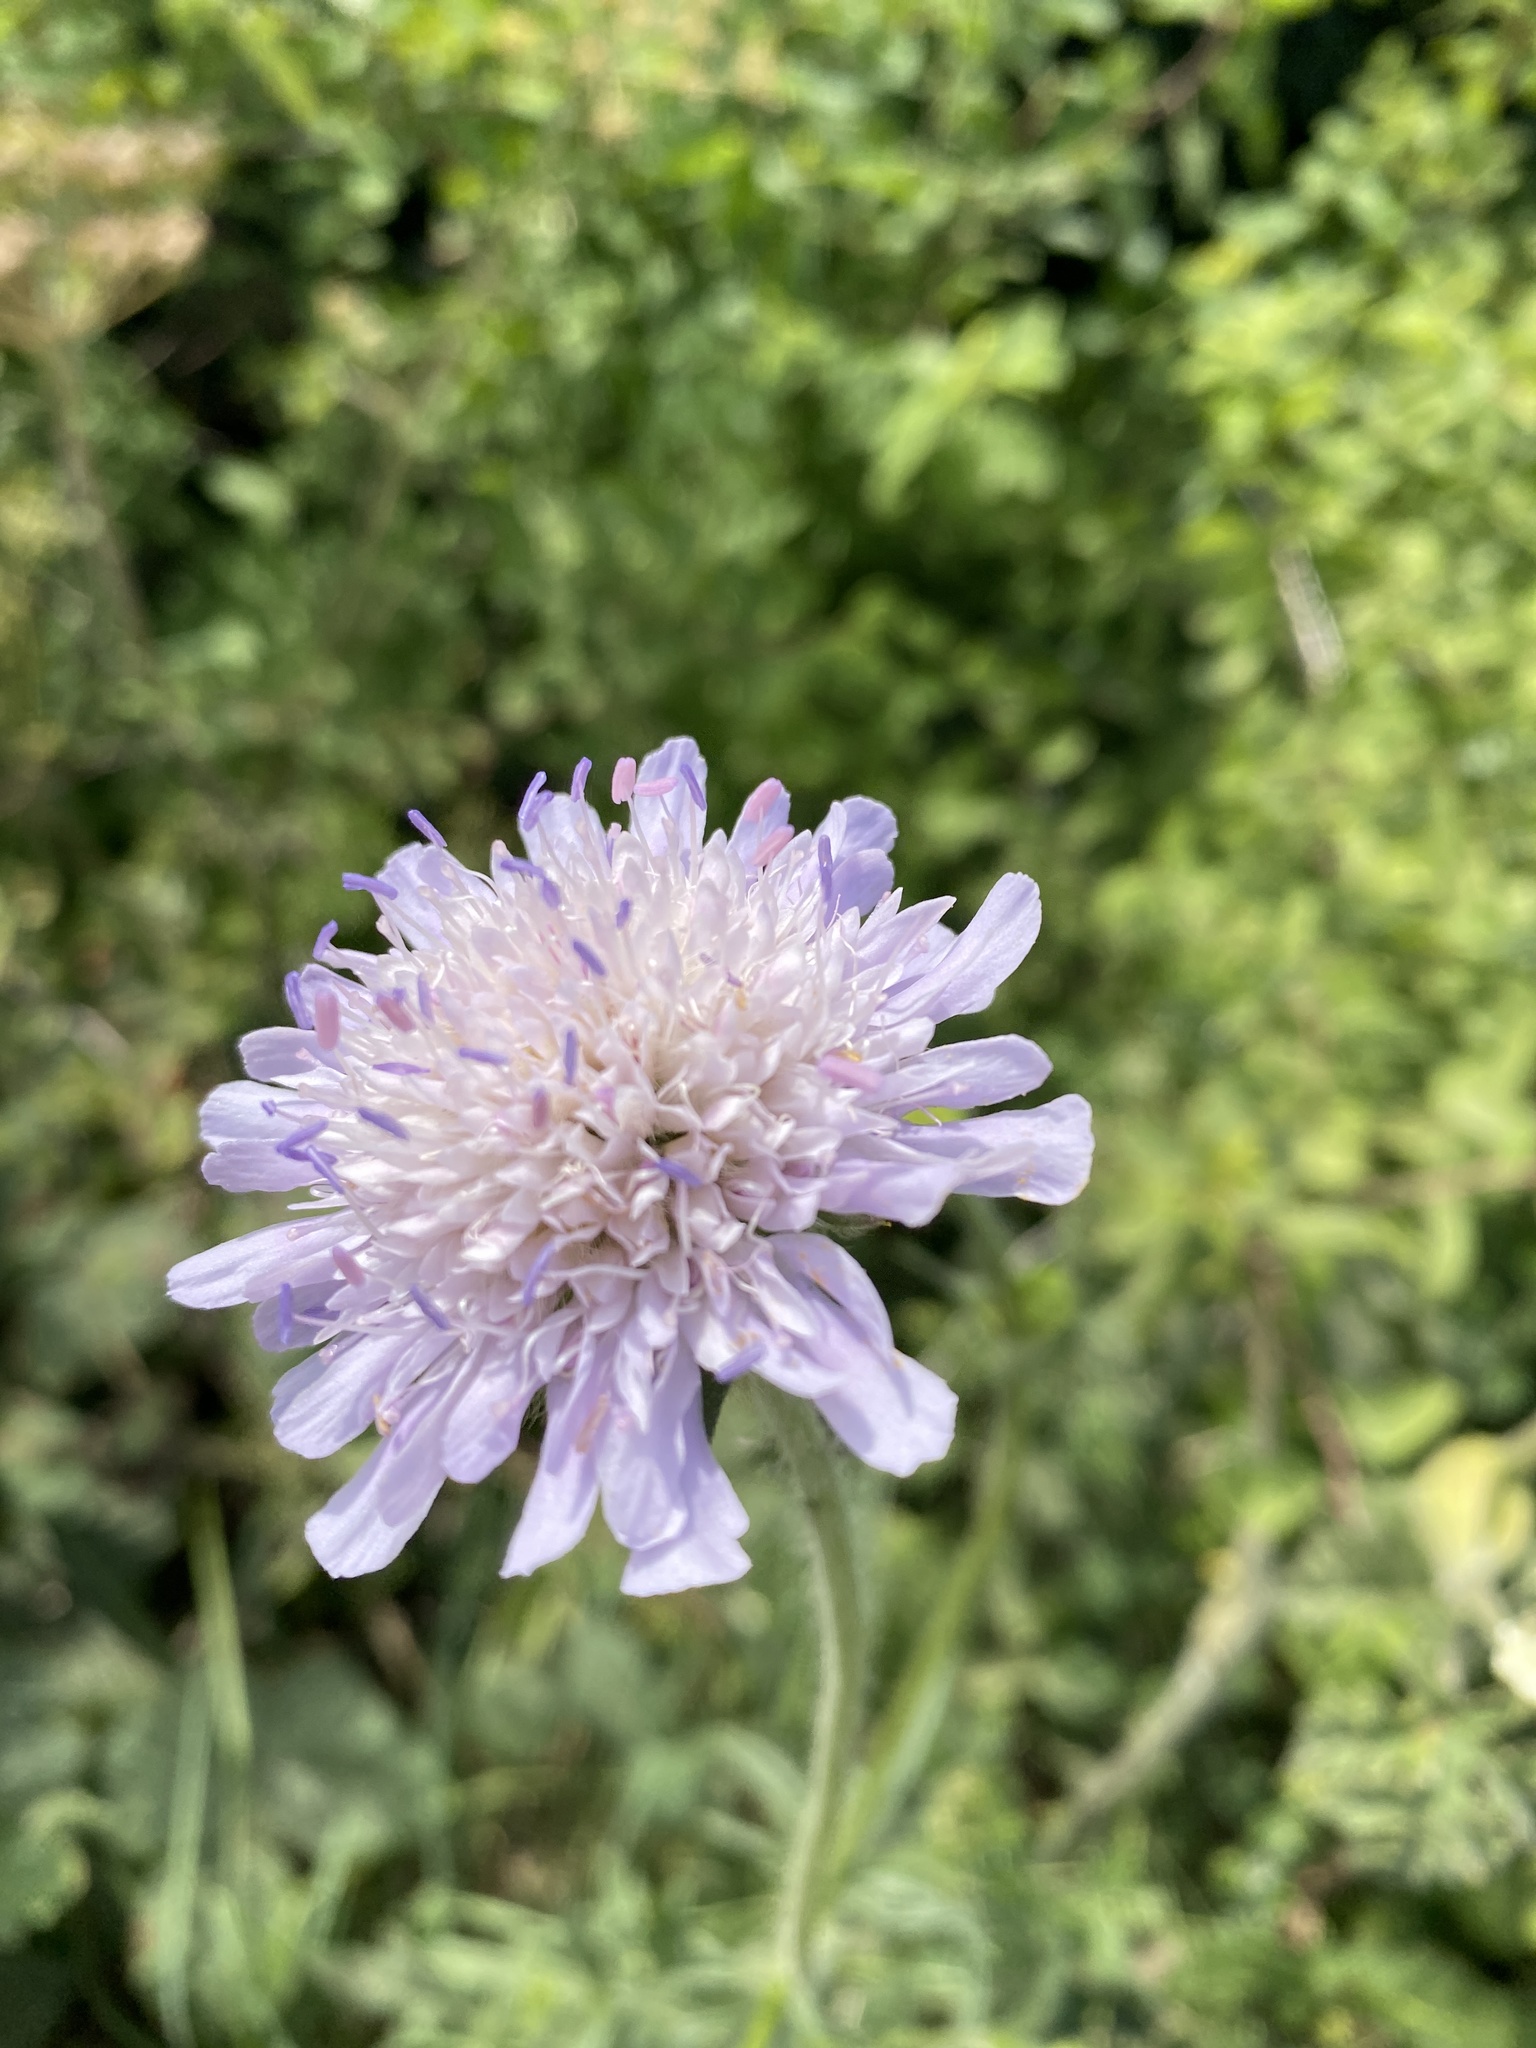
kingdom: Plantae
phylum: Tracheophyta
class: Magnoliopsida
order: Dipsacales
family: Caprifoliaceae
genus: Knautia
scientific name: Knautia arvensis
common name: Field scabiosa
